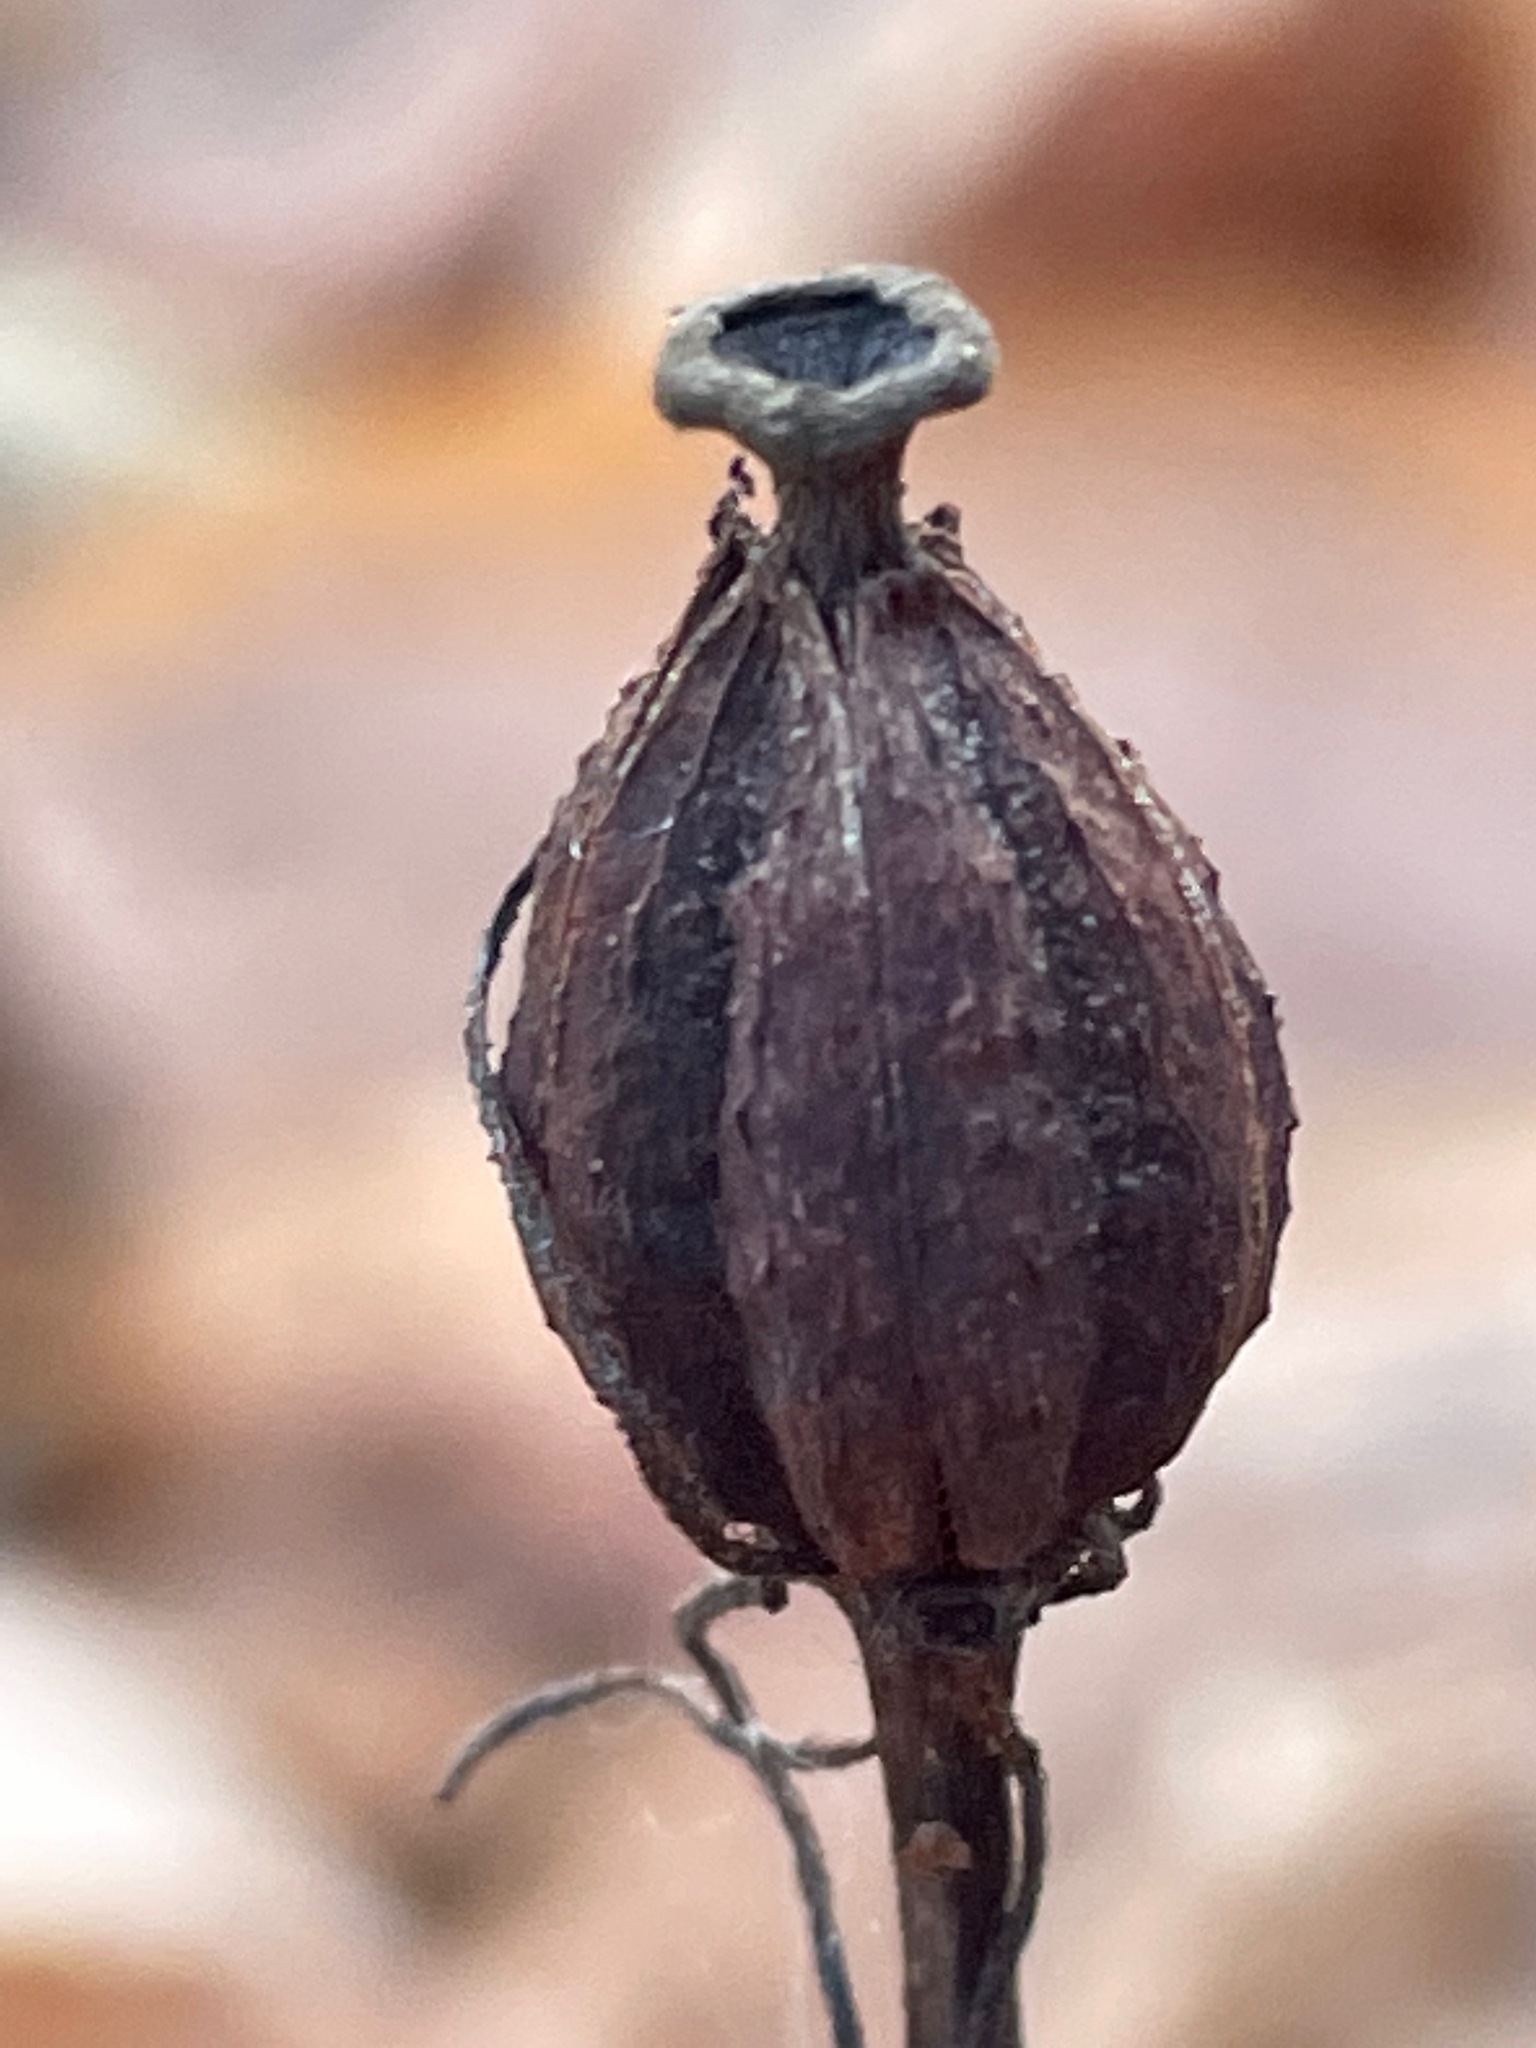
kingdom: Plantae
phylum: Tracheophyta
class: Magnoliopsida
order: Ericales
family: Ericaceae
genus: Monotropa
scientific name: Monotropa uniflora
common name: Convulsion root
